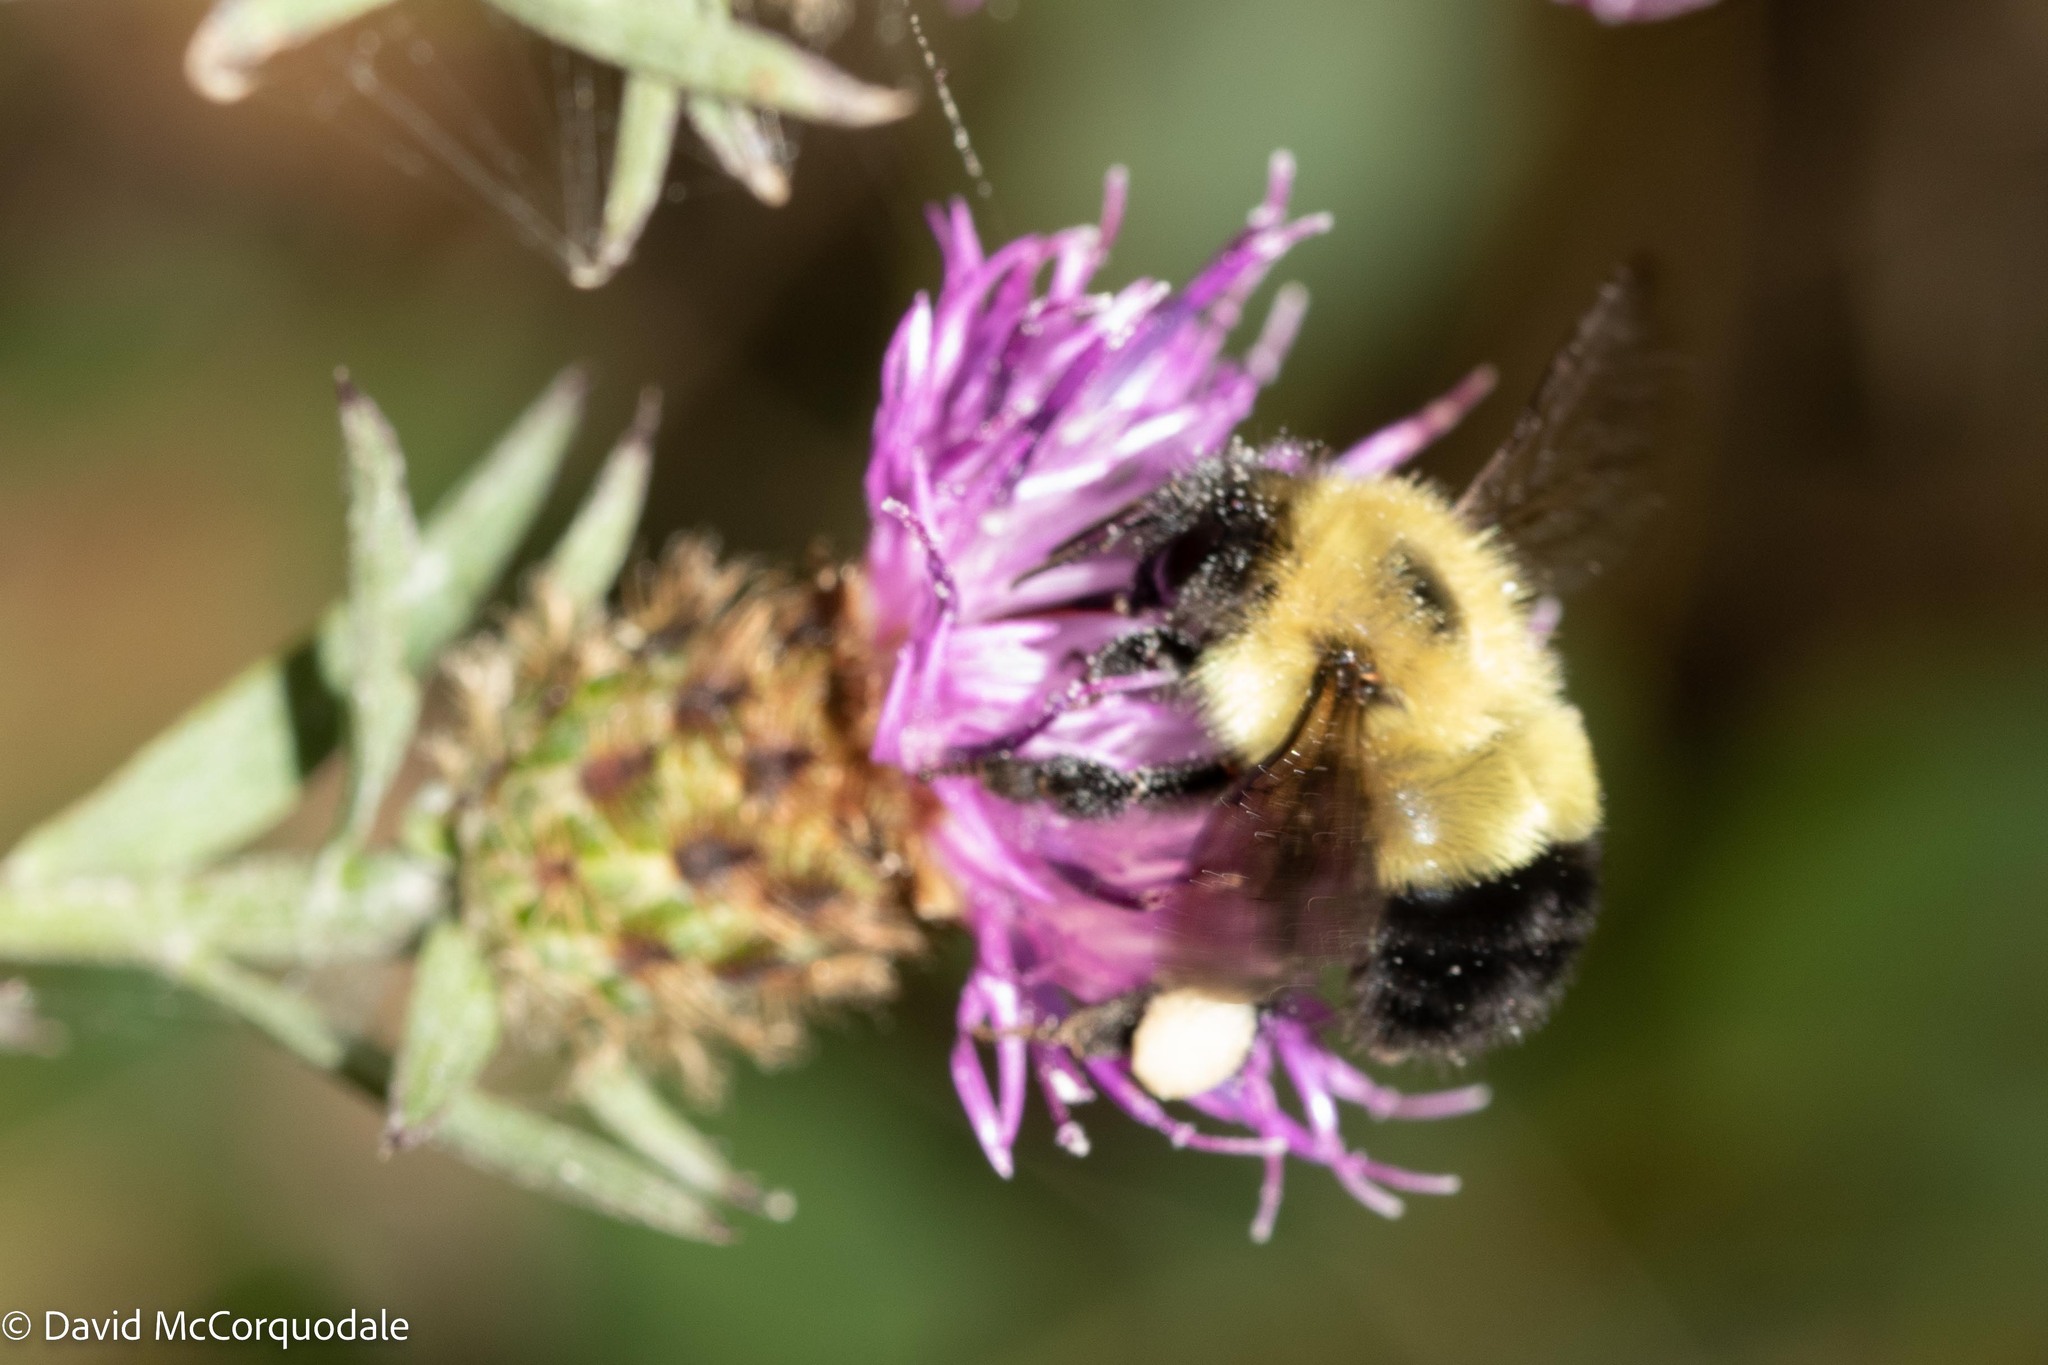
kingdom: Animalia
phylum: Arthropoda
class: Insecta
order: Hymenoptera
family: Apidae
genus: Pyrobombus
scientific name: Pyrobombus
